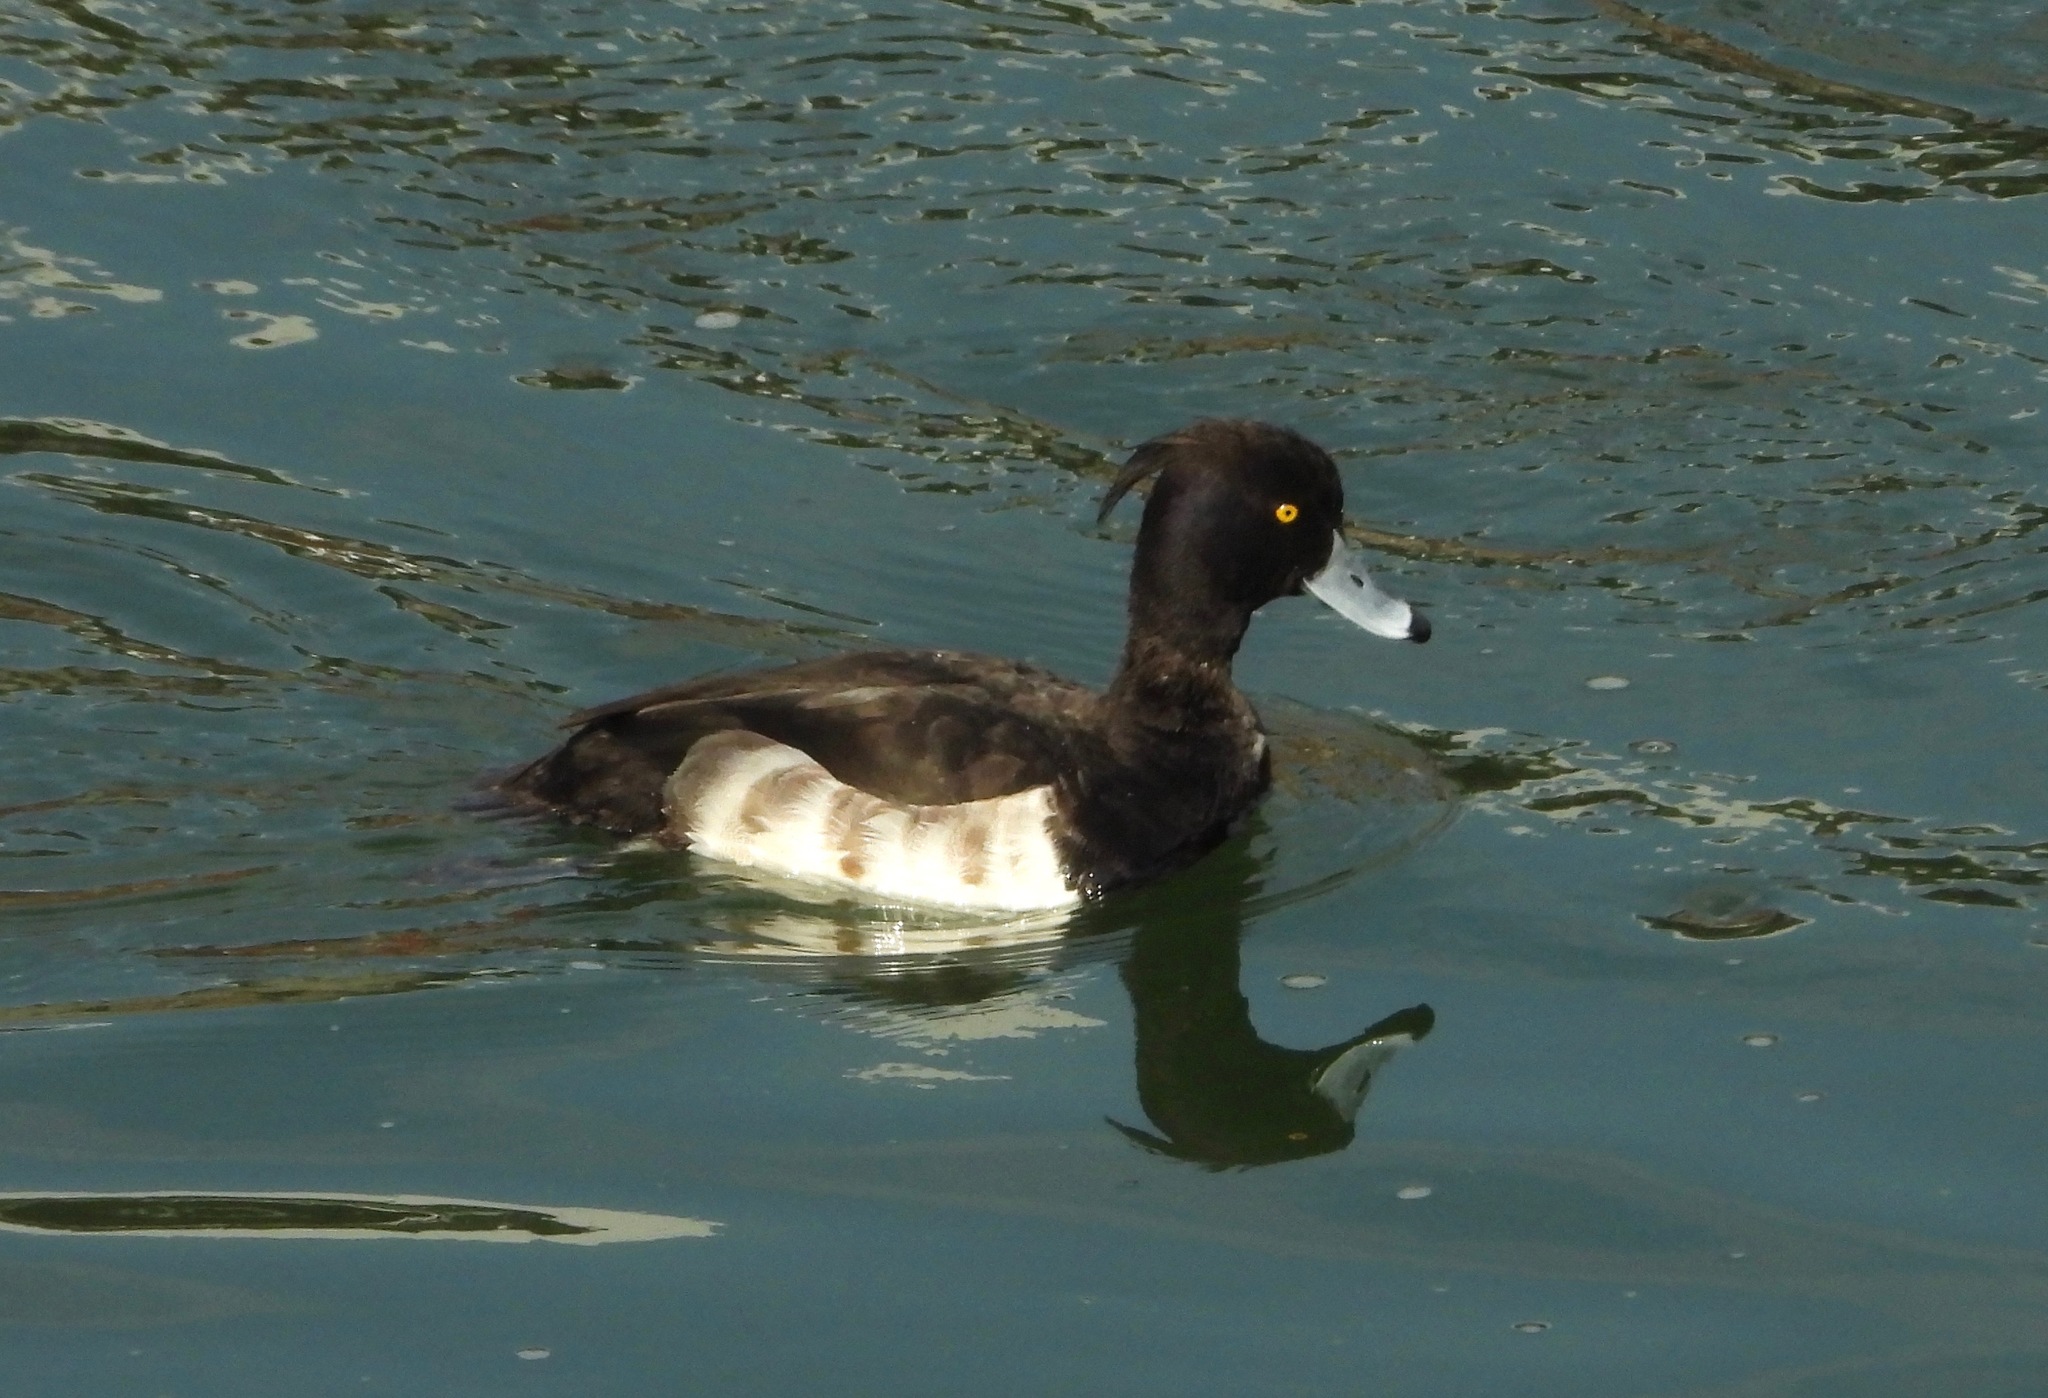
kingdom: Animalia
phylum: Chordata
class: Aves
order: Anseriformes
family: Anatidae
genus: Aythya
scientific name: Aythya fuligula
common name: Tufted duck
